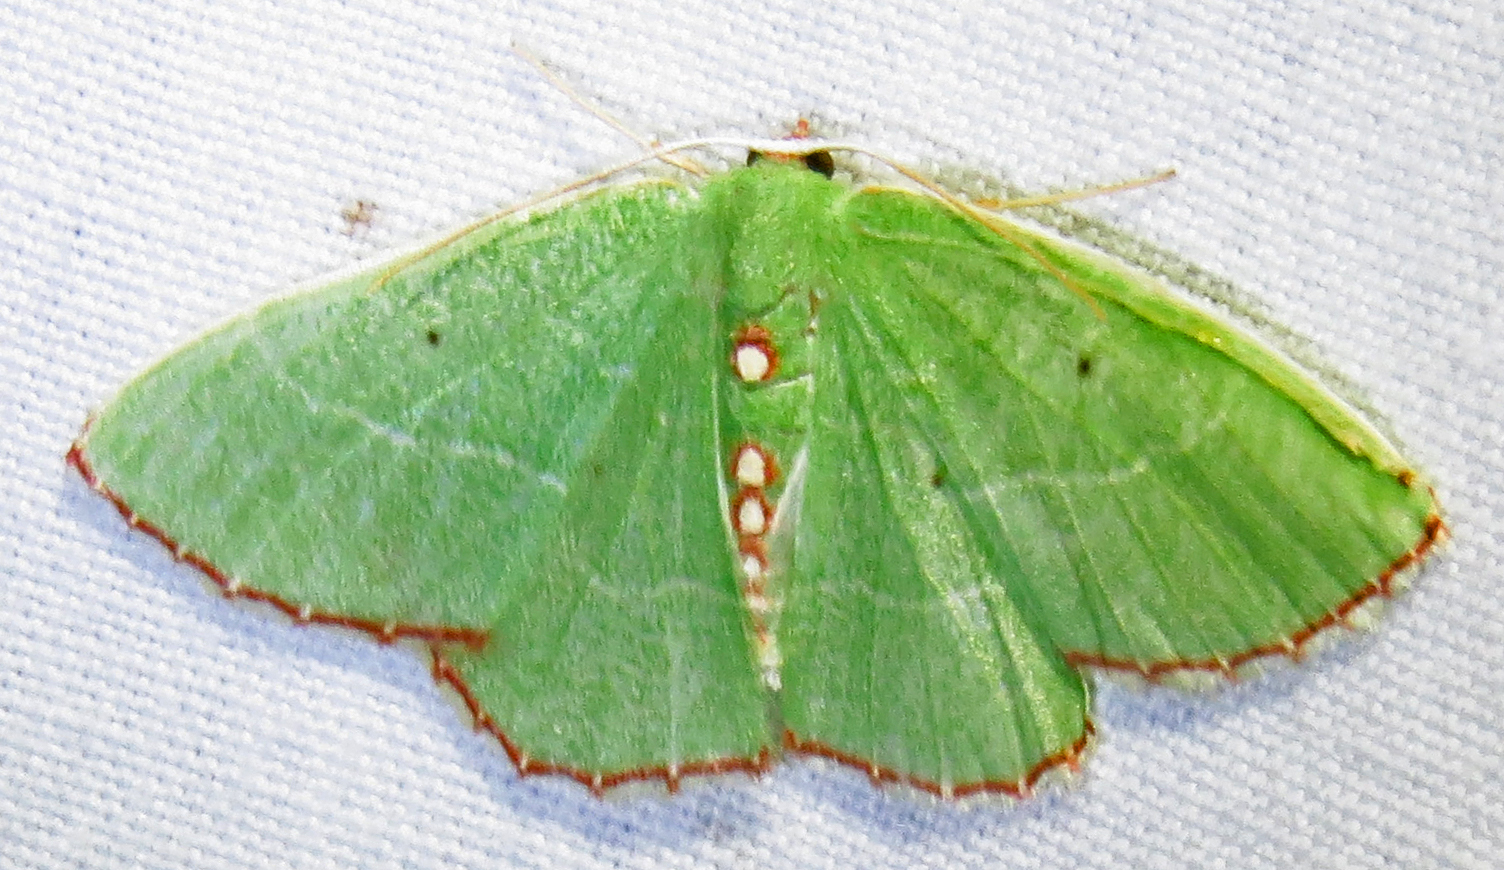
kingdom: Animalia
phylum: Arthropoda
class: Insecta
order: Lepidoptera
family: Geometridae
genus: Nemoria
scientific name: Nemoria lixaria
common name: Red-bordered emerald
